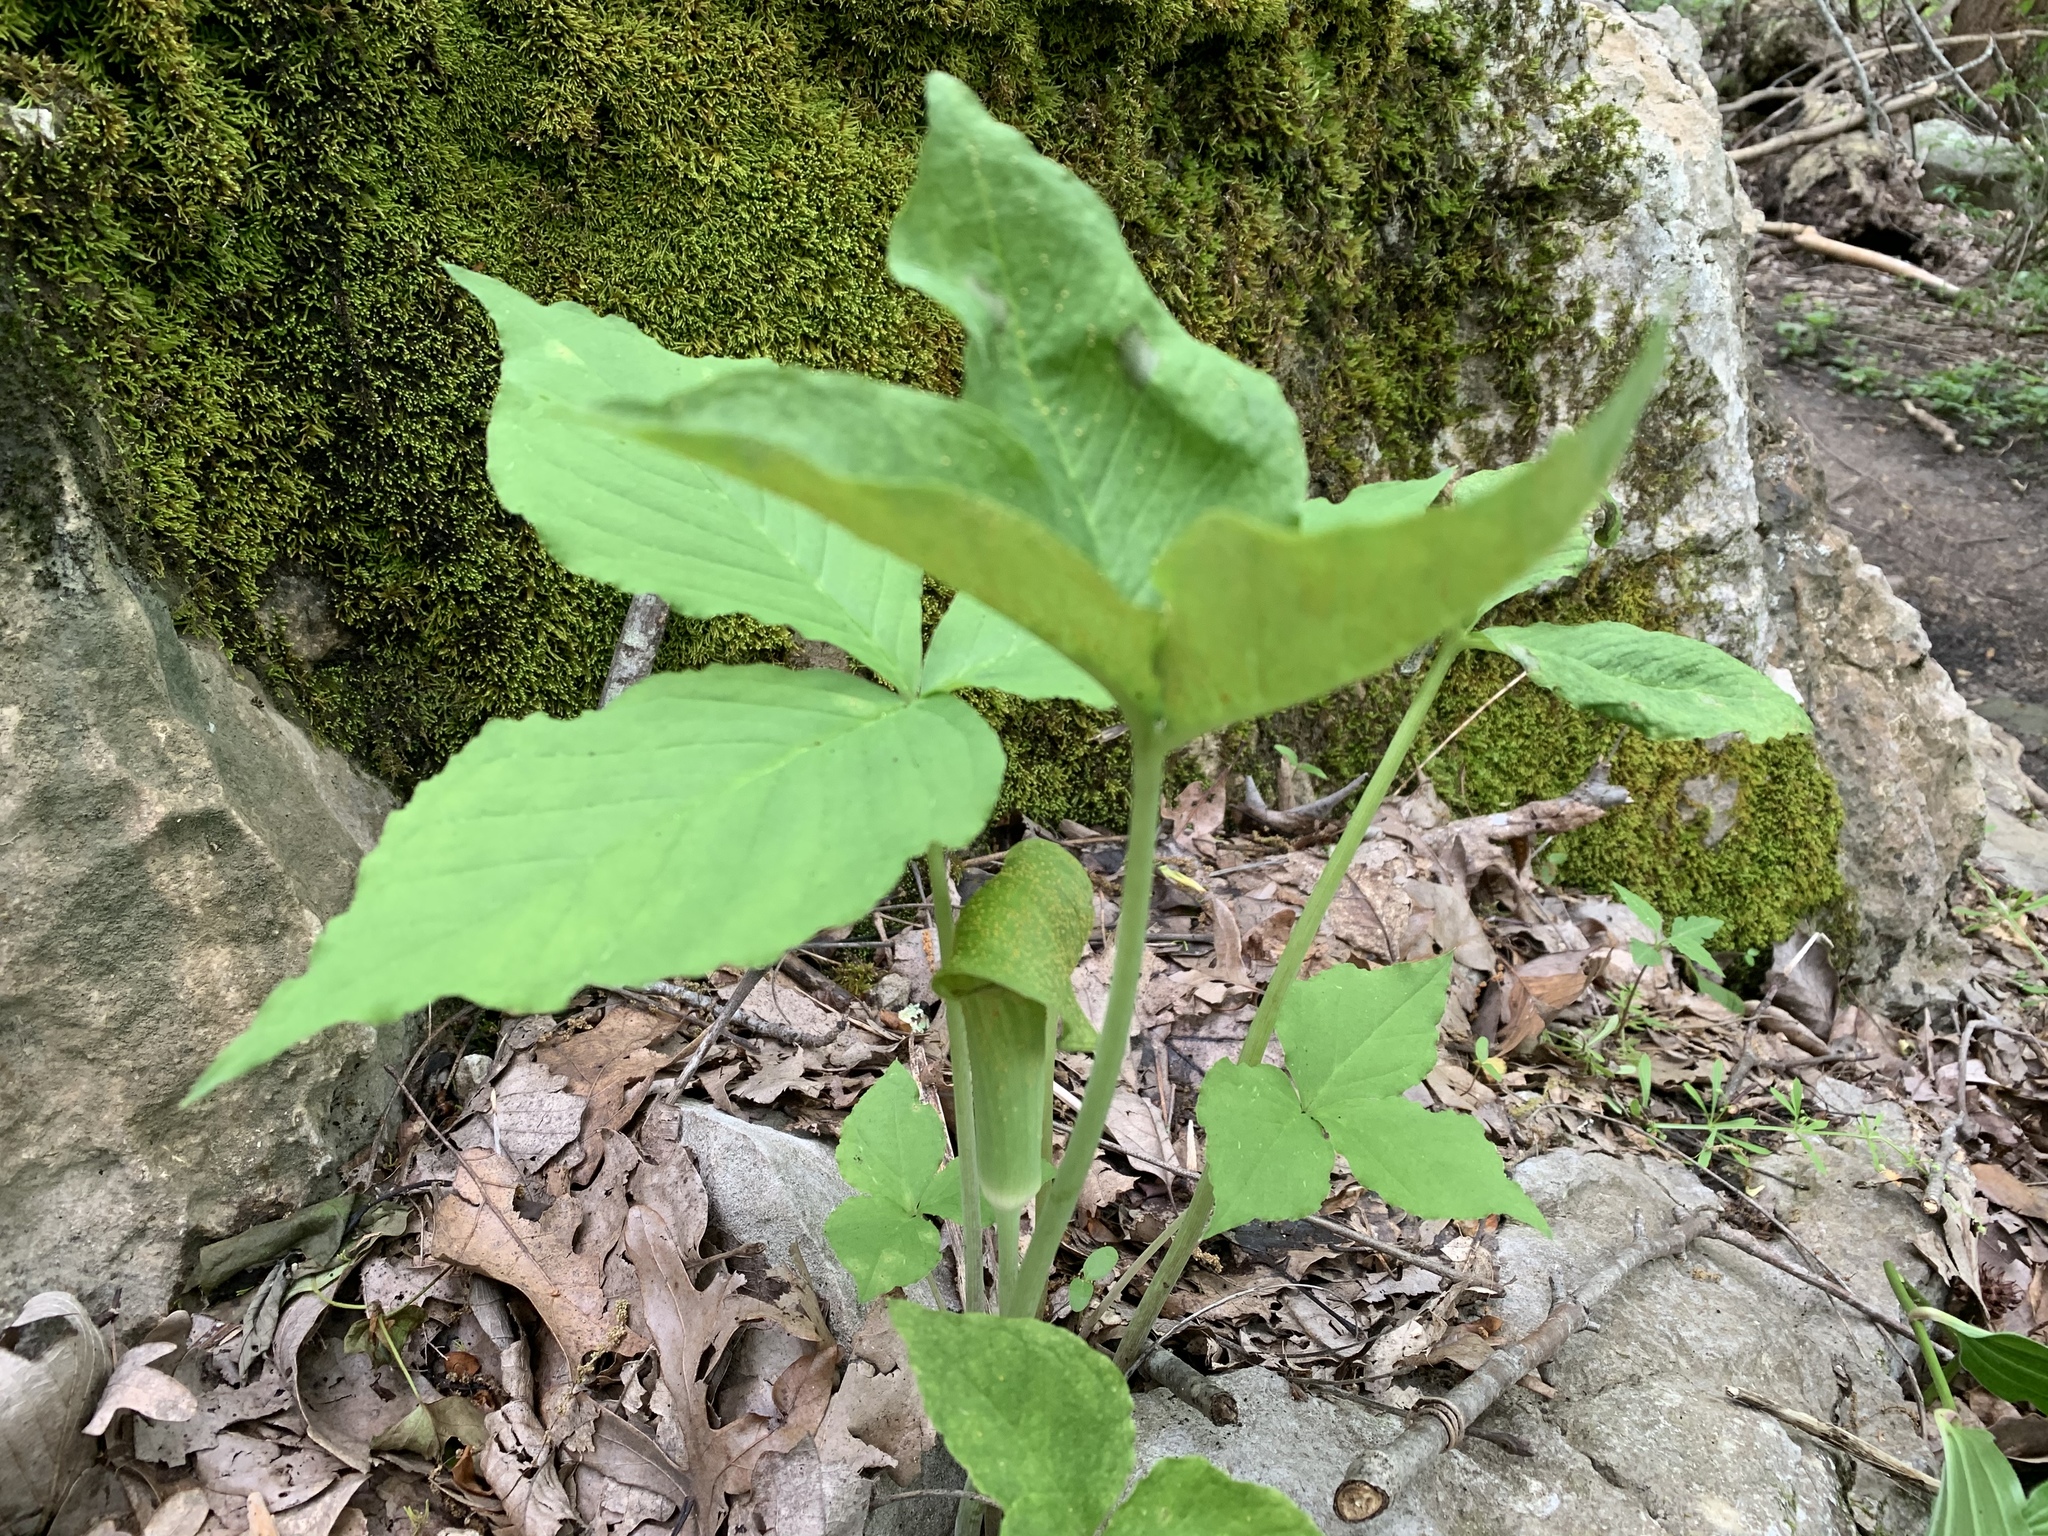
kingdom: Fungi
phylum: Basidiomycota
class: Pucciniomycetes
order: Pucciniales
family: Pucciniaceae
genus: Uromyces
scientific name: Uromyces ari-triphylli
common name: Jack-in-the-pulpit rust
